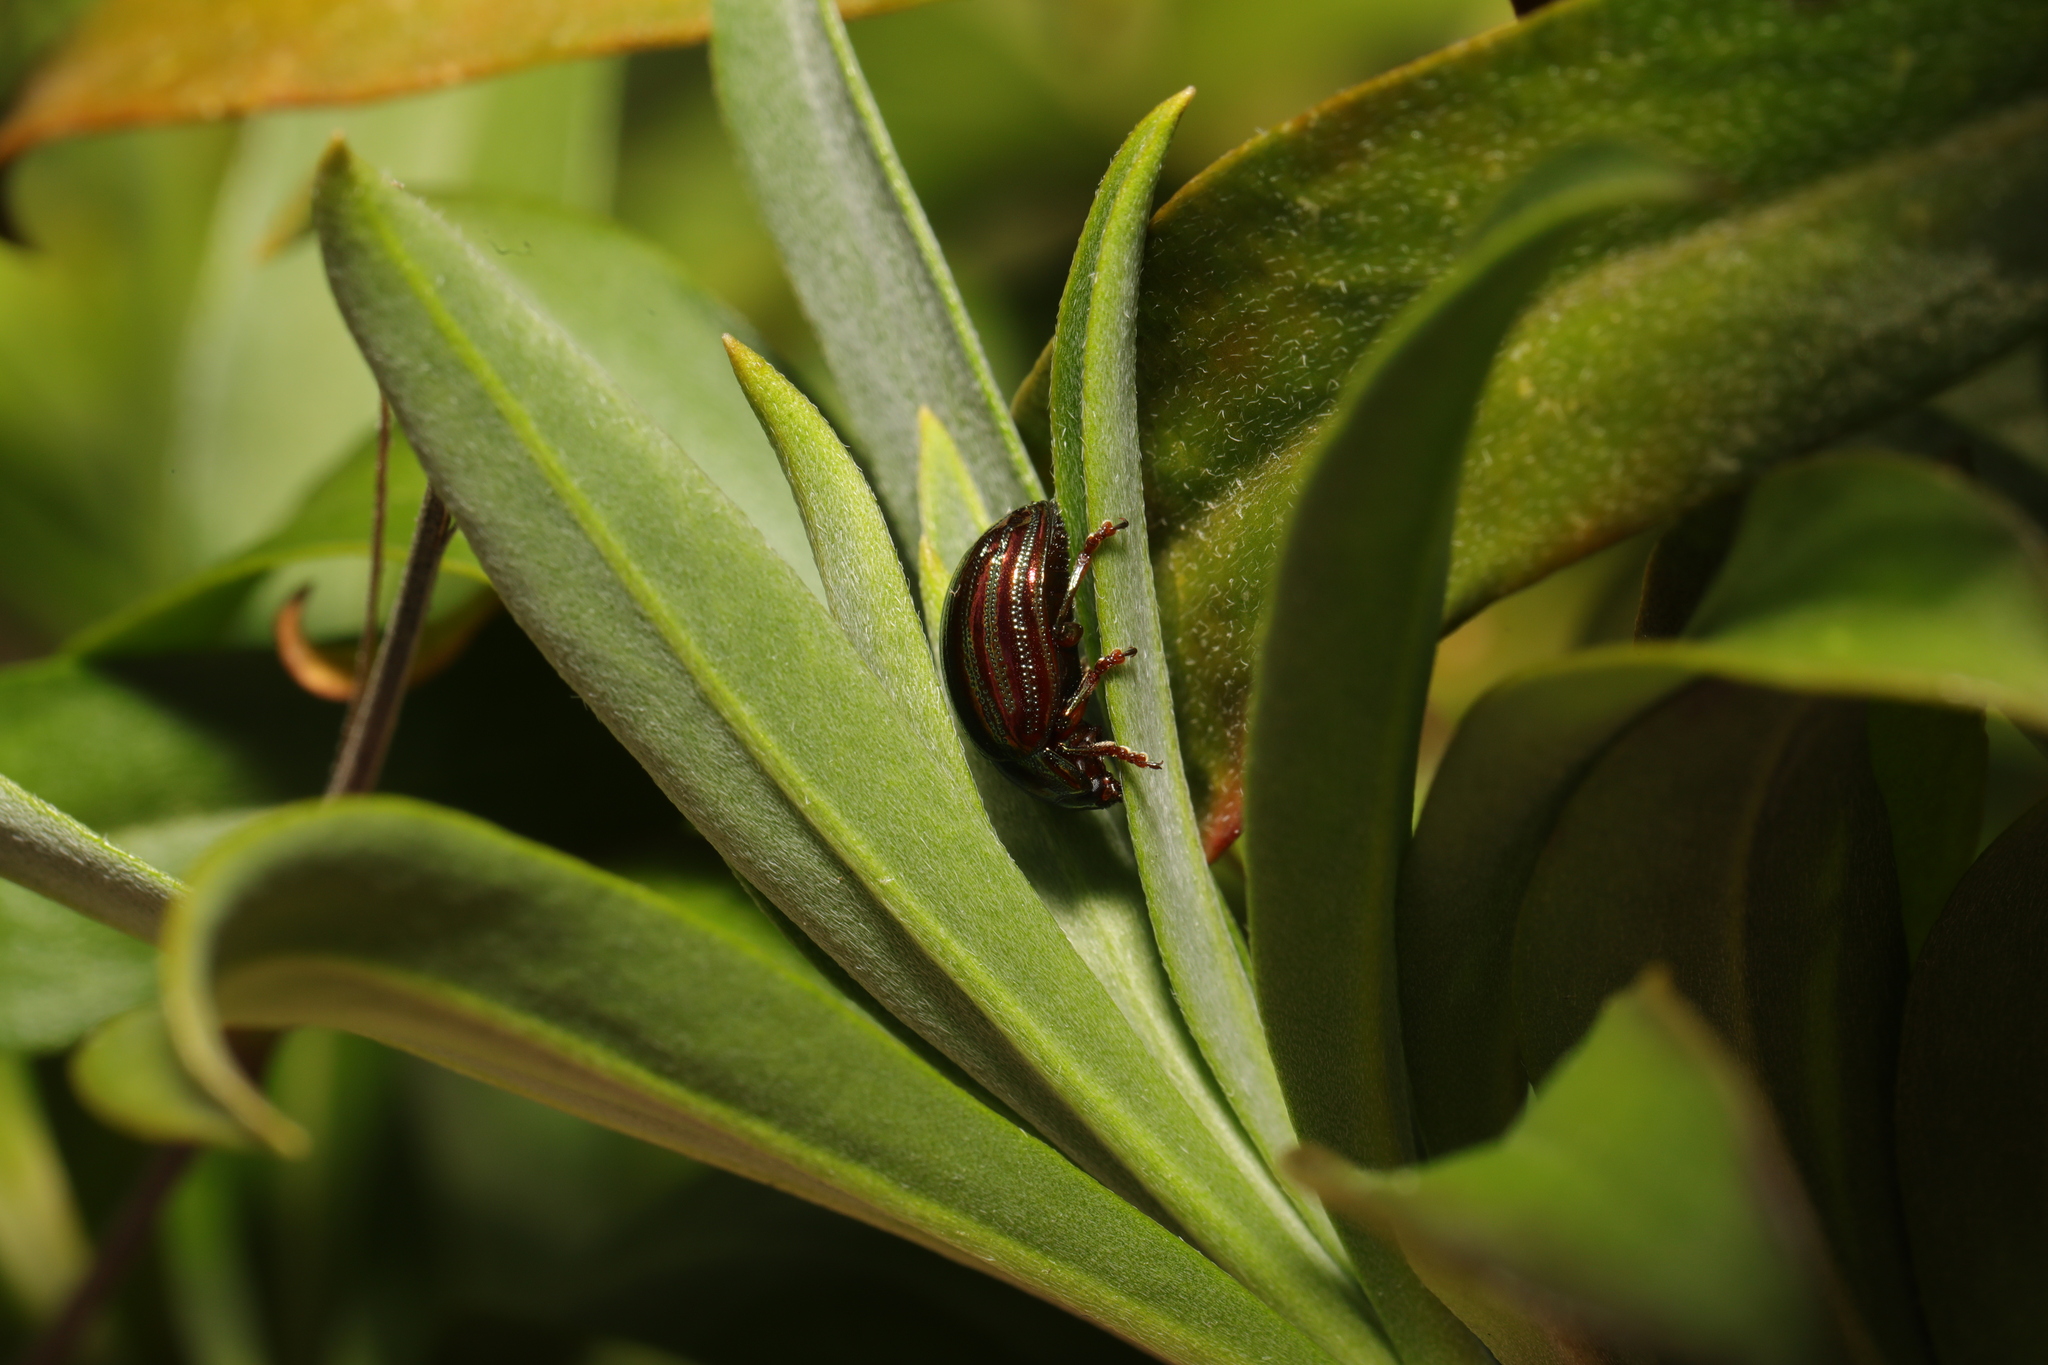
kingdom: Animalia
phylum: Arthropoda
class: Insecta
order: Coleoptera
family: Chrysomelidae
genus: Chrysolina
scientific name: Chrysolina americana
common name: Rosemary beetle
